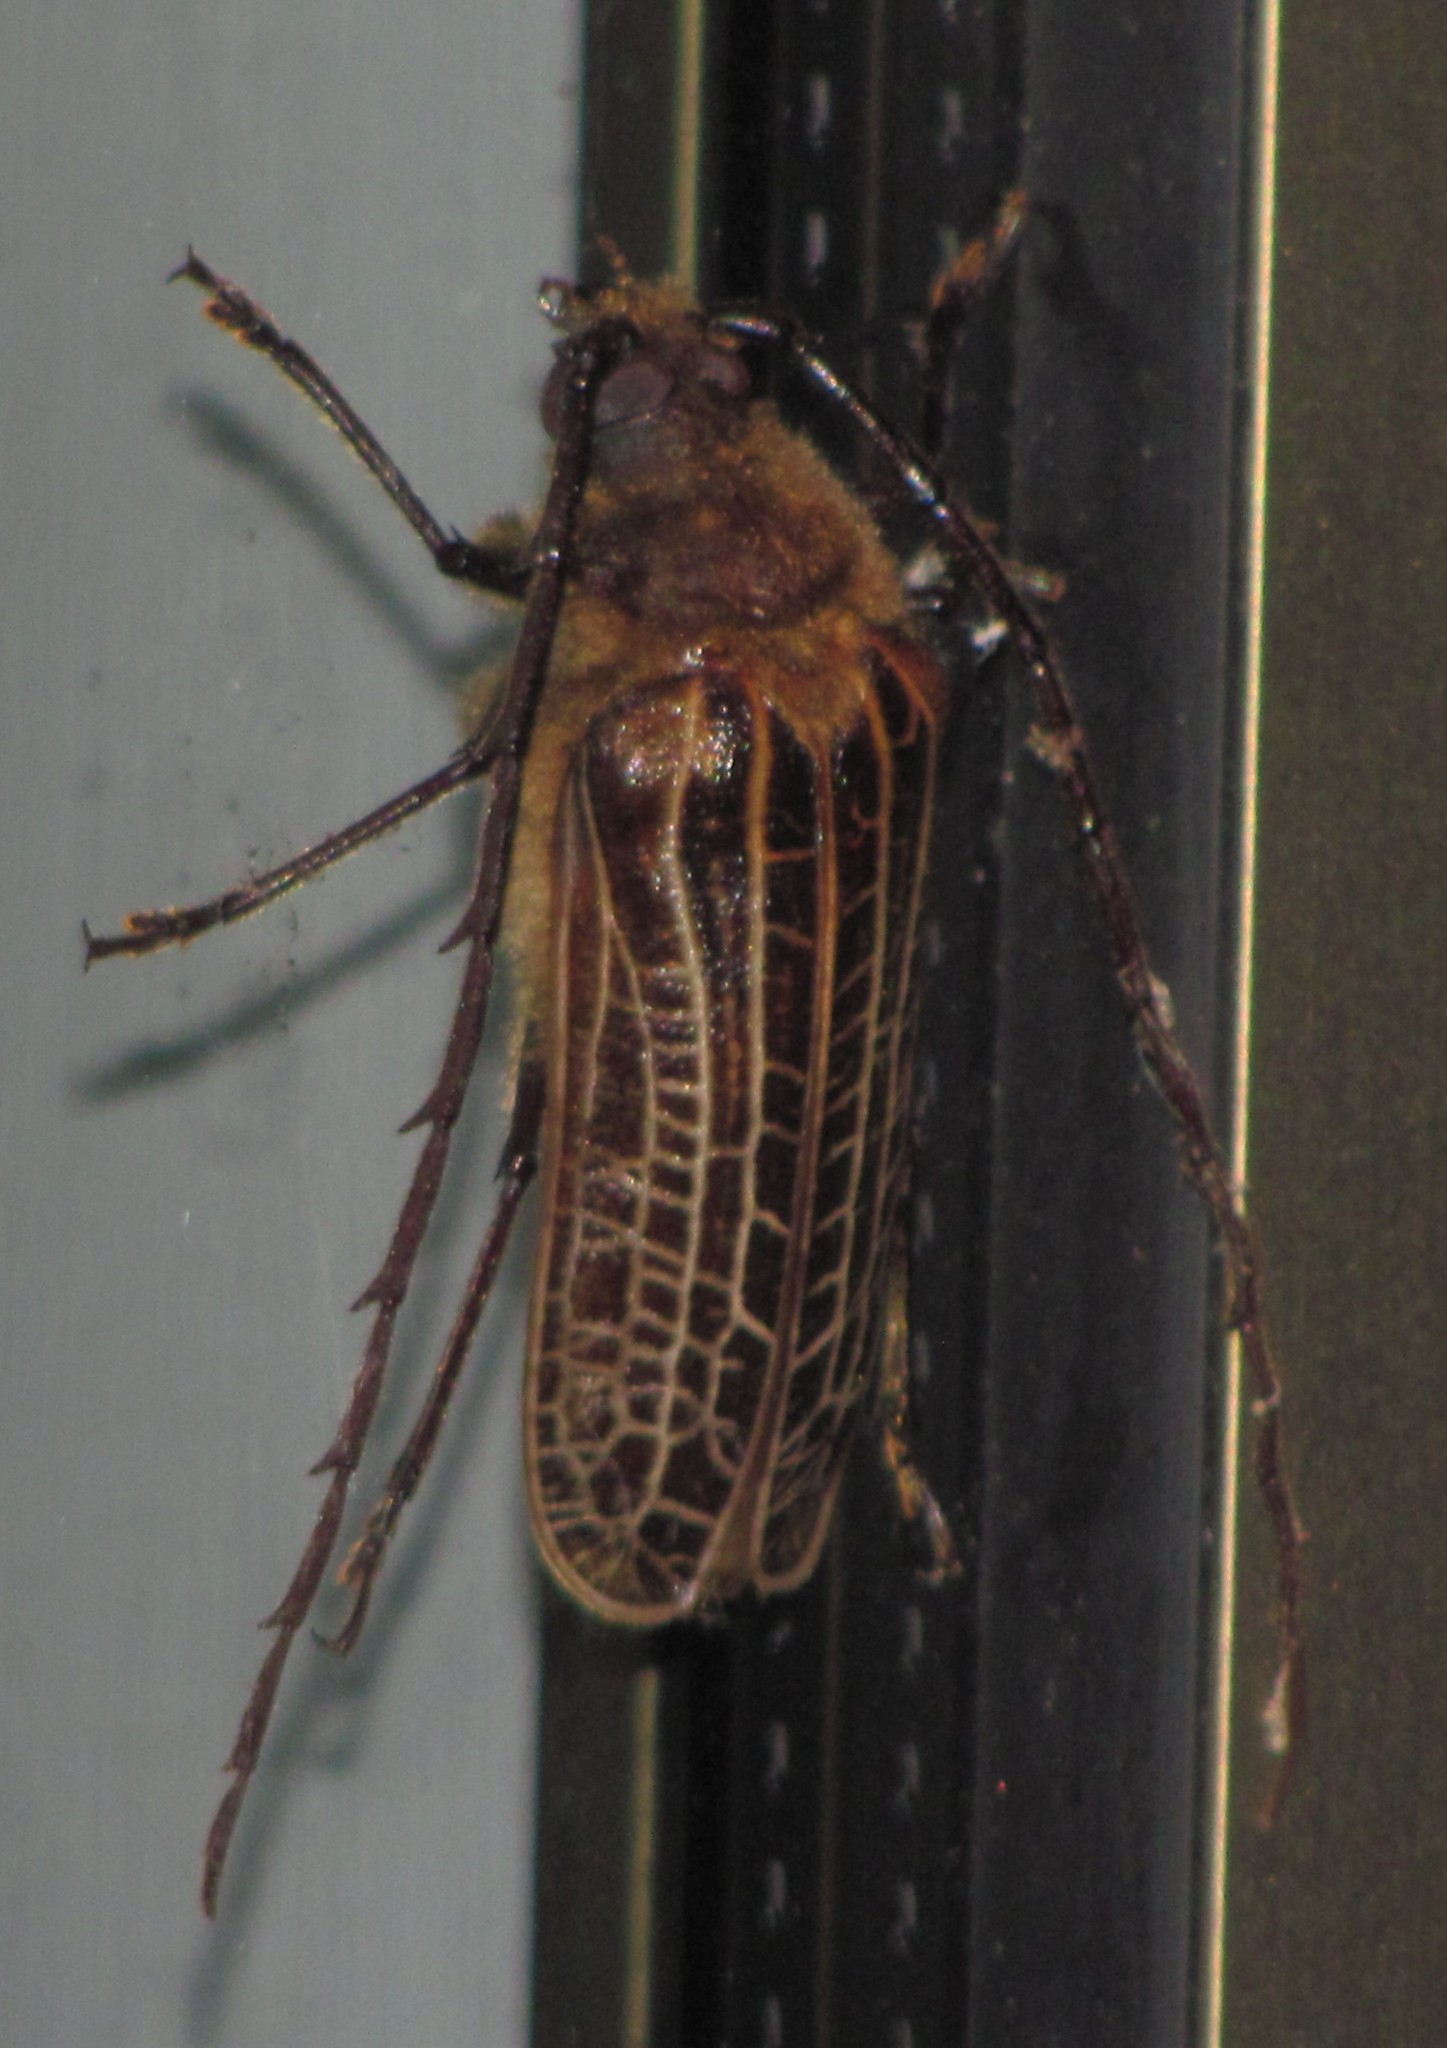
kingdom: Animalia
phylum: Arthropoda
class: Insecta
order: Coleoptera
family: Cerambycidae
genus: Prionoplus
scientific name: Prionoplus reticularis
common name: Huhu beetle
